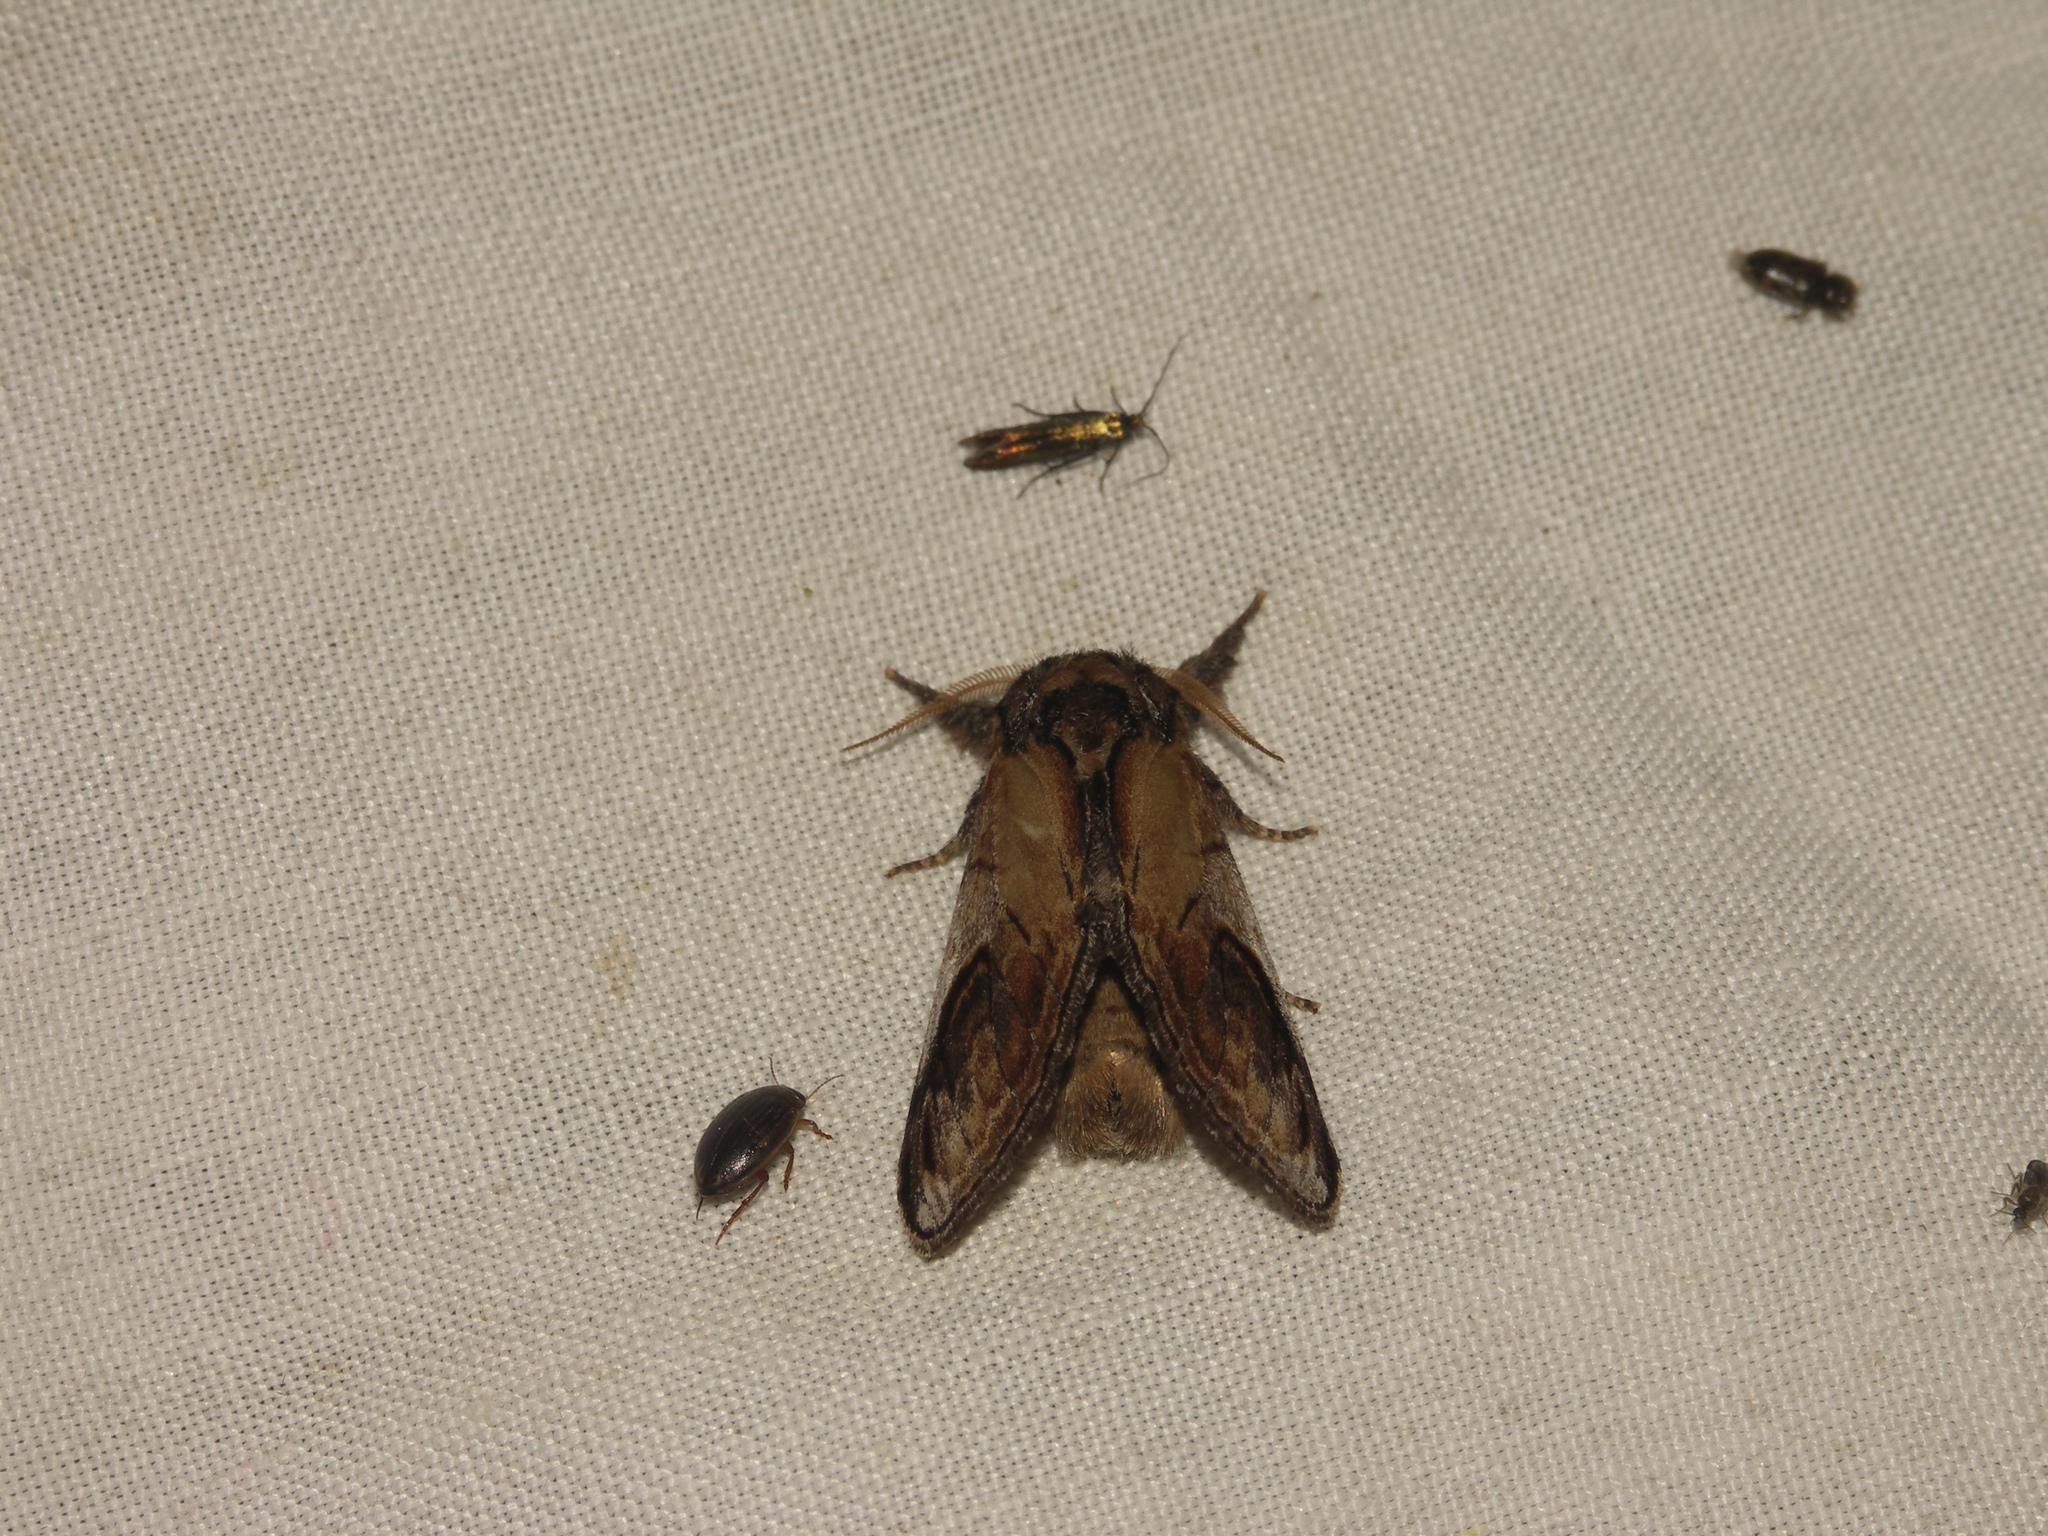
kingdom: Animalia
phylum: Arthropoda
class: Insecta
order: Lepidoptera
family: Notodontidae
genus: Notodonta
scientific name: Notodonta ziczac
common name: Pebble prominent
